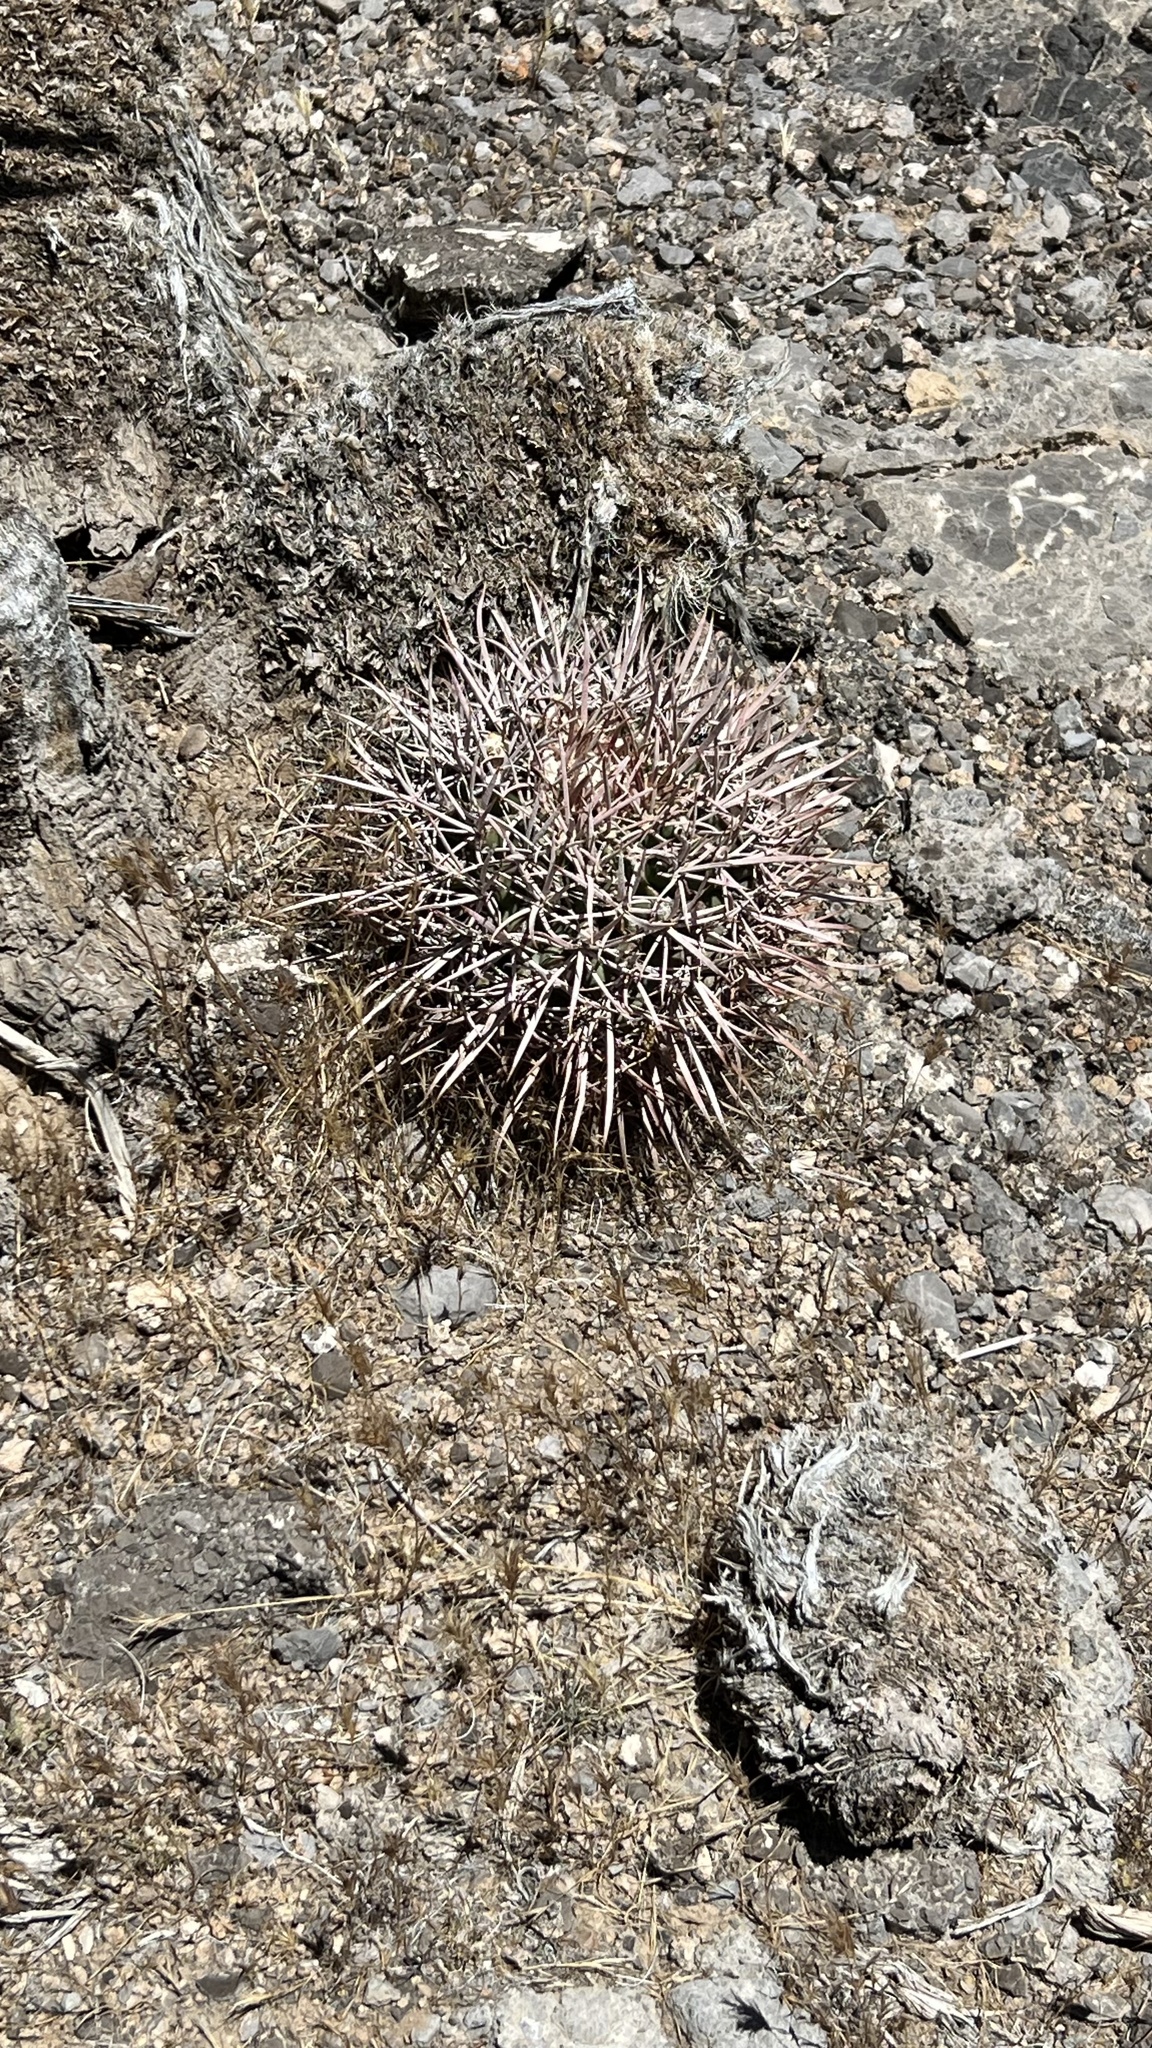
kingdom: Plantae
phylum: Tracheophyta
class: Magnoliopsida
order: Caryophyllales
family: Cactaceae
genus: Echinocactus
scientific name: Echinocactus polycephalus
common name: Cottontop cactus
